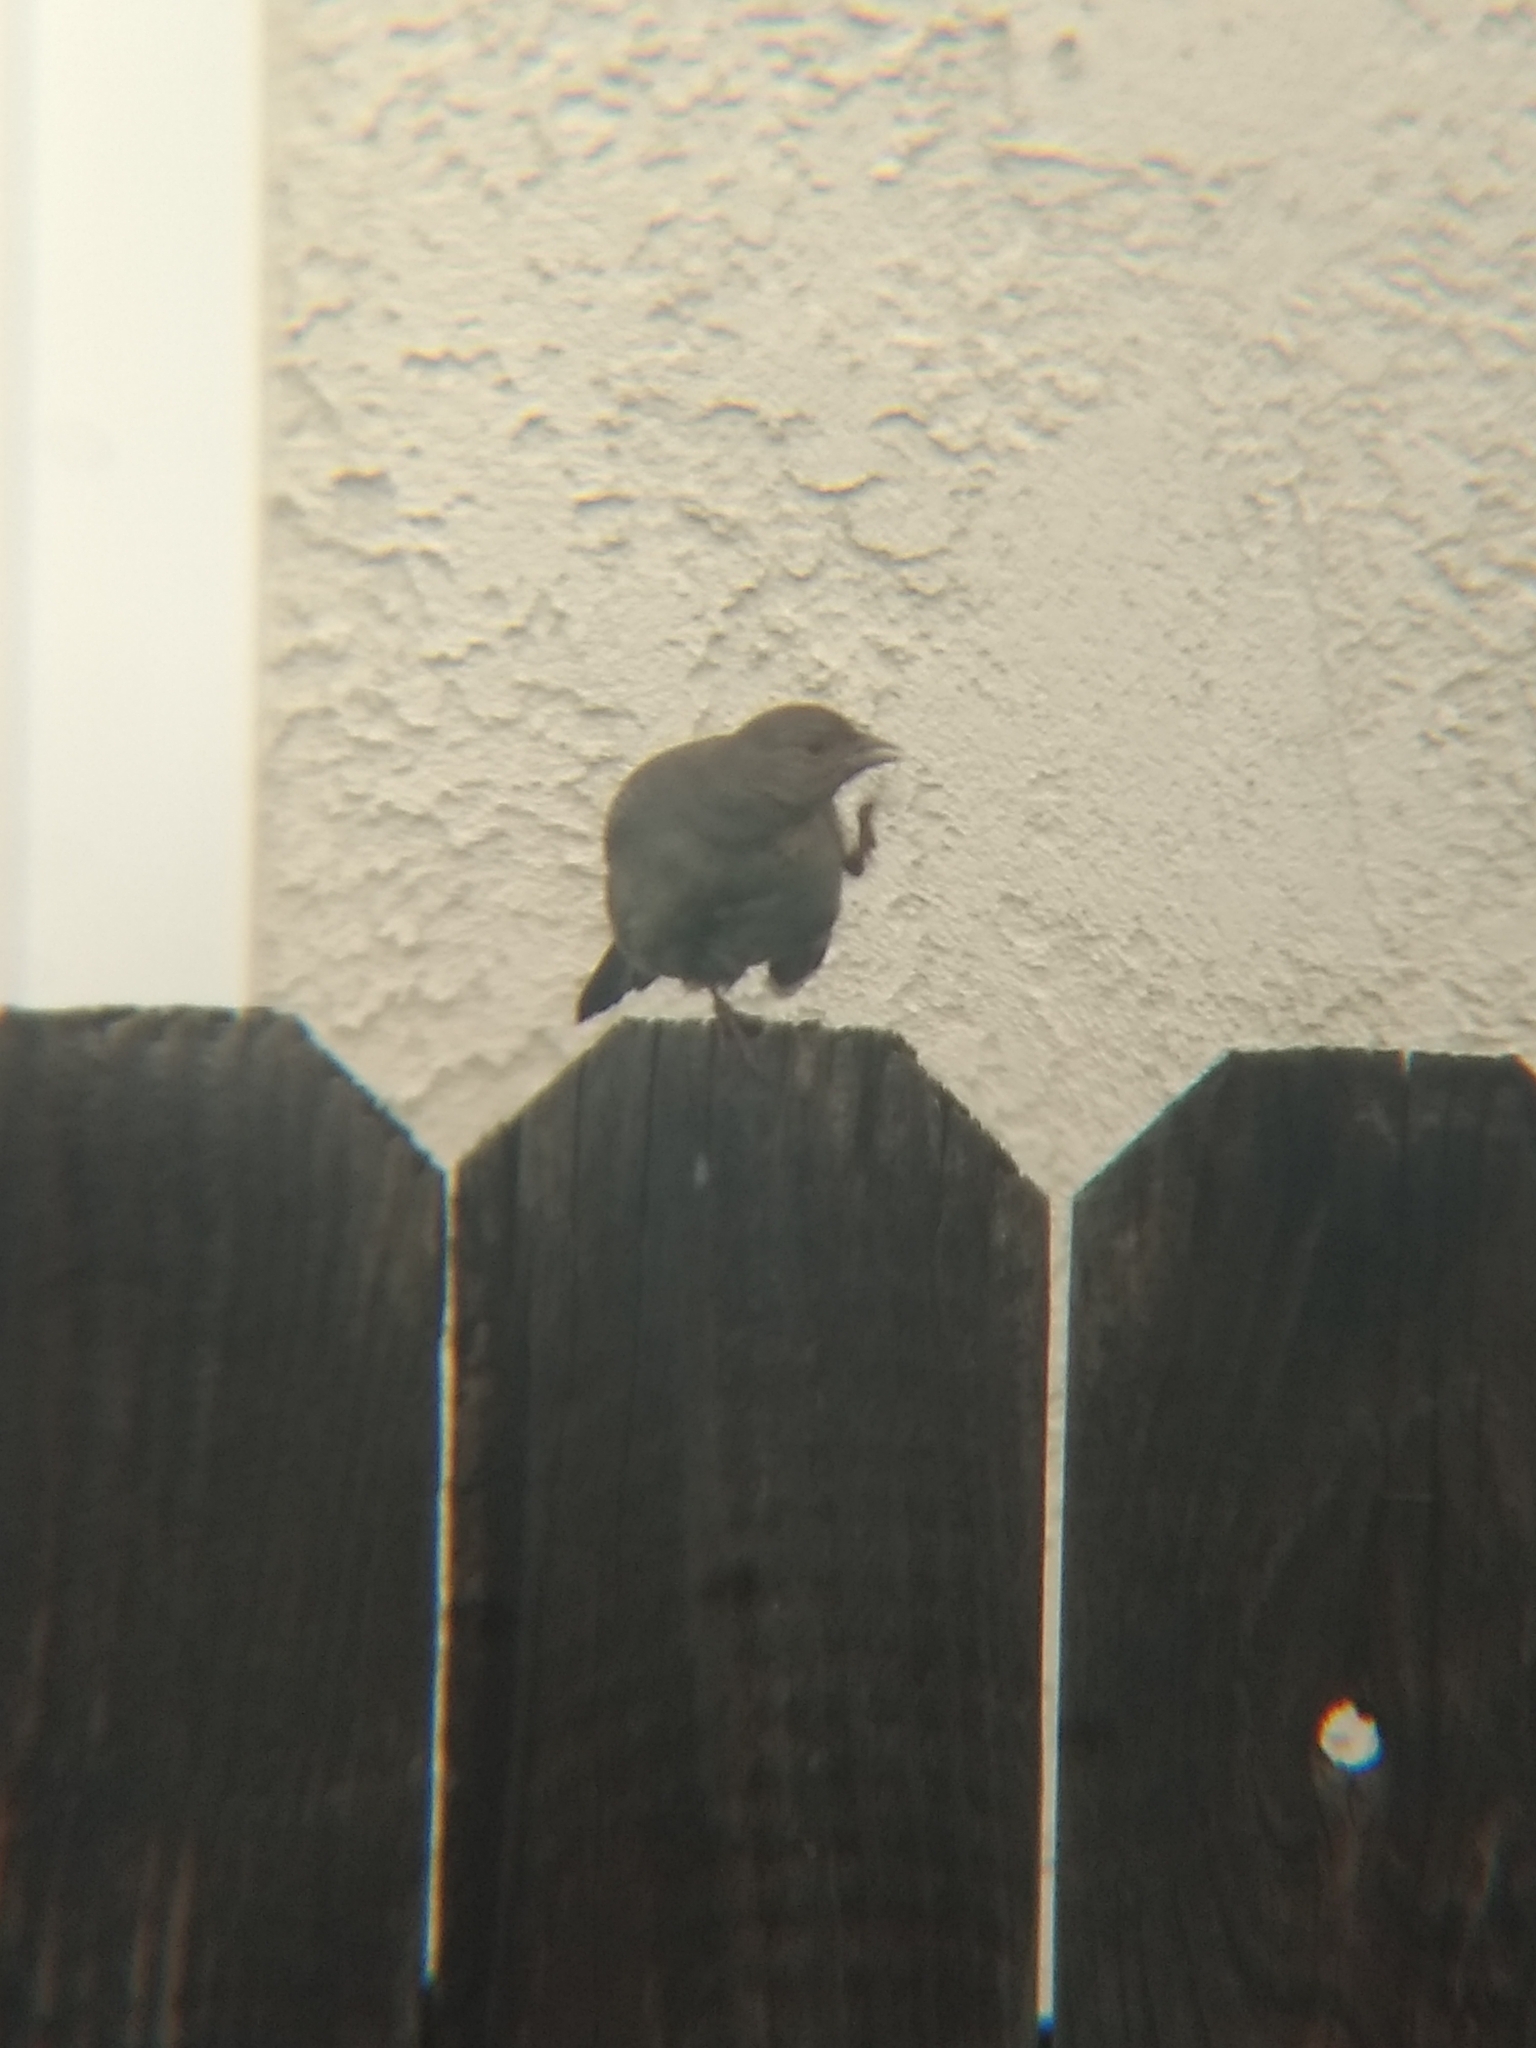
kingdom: Animalia
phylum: Chordata
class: Aves
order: Passeriformes
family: Passerellidae
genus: Melozone
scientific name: Melozone crissalis
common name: California towhee
